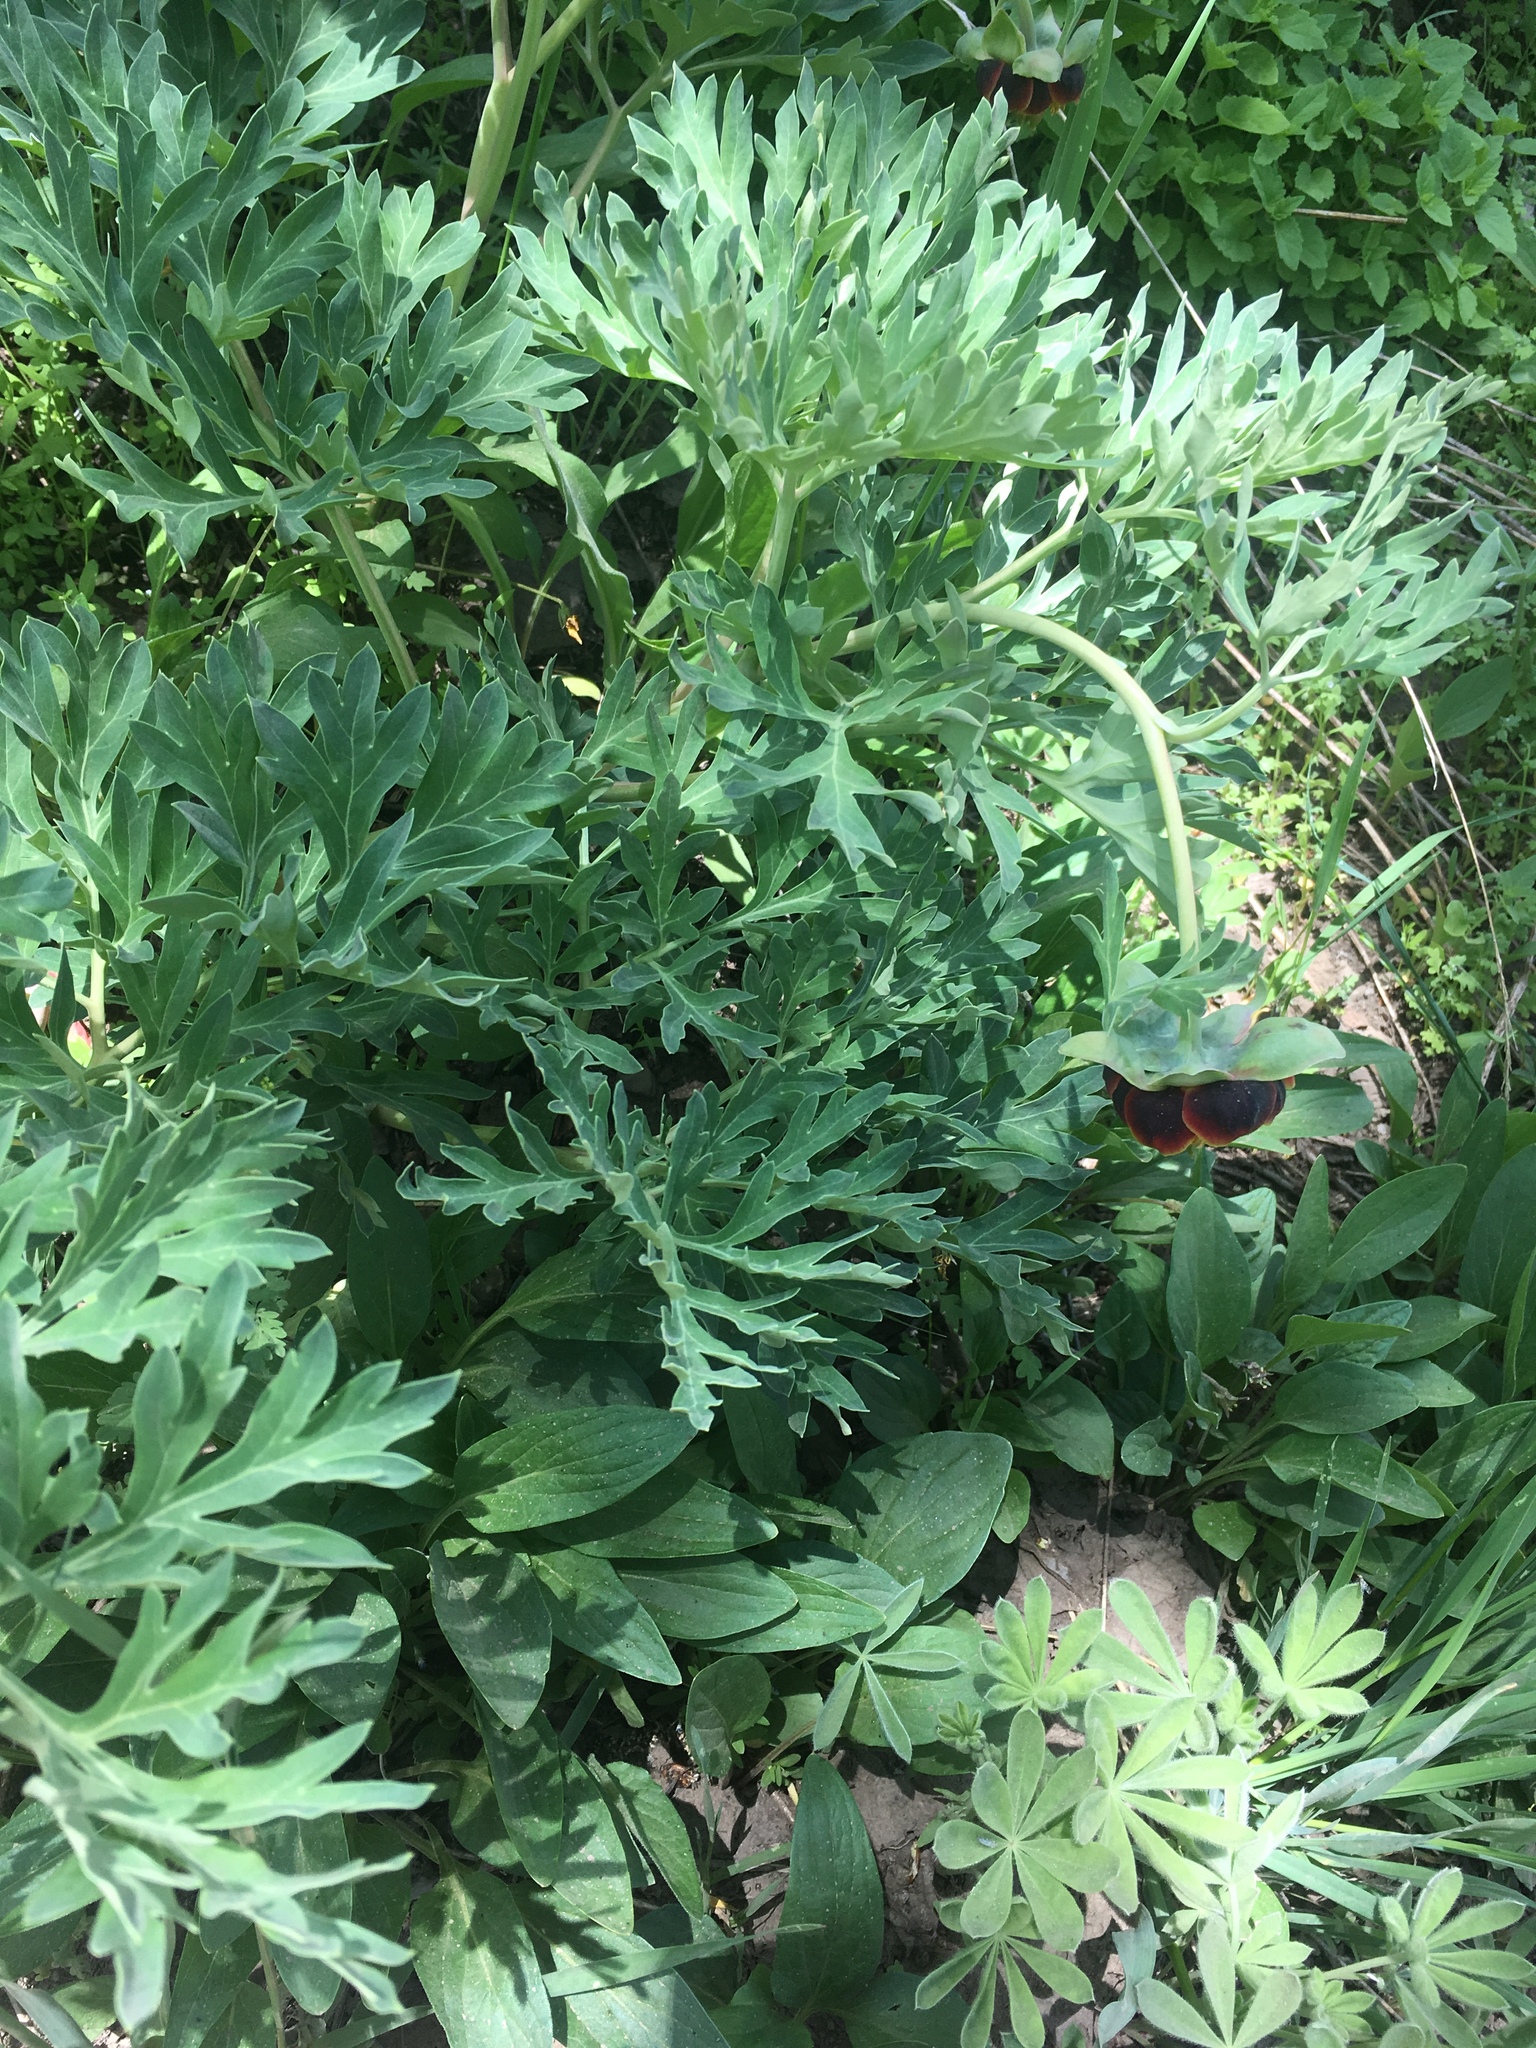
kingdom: Plantae
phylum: Tracheophyta
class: Magnoliopsida
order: Saxifragales
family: Paeoniaceae
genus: Paeonia
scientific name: Paeonia brownii
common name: Brown's peony
